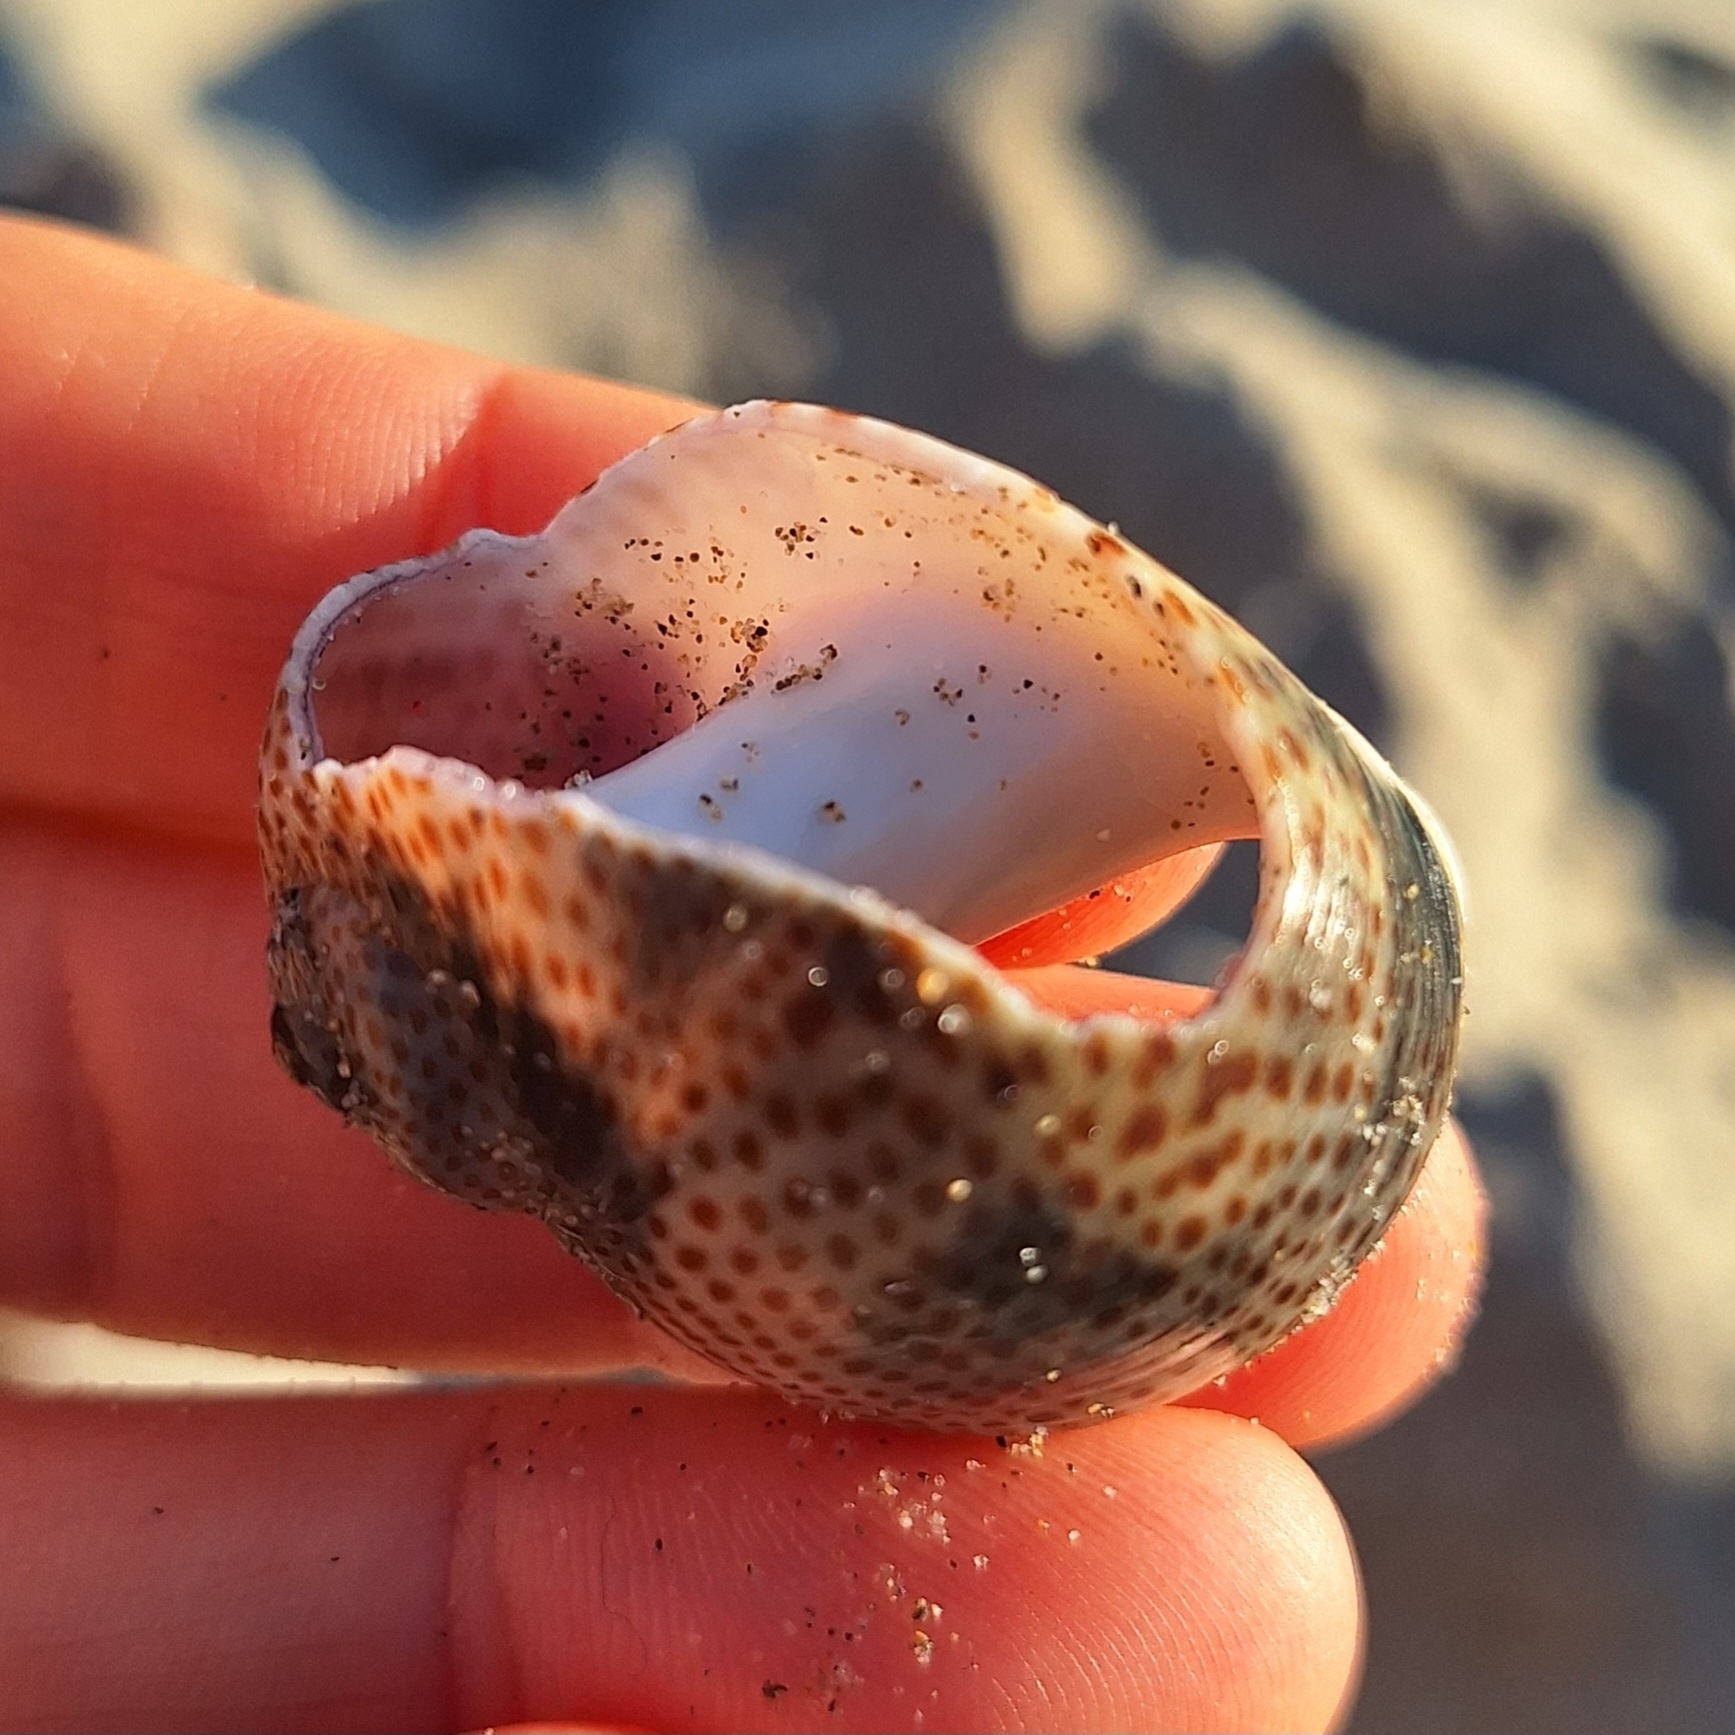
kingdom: Animalia
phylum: Mollusca
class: Gastropoda
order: Littorinimorpha
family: Naticidae
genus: Naticarius
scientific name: Naticarius stercusmuscarum
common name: Fly-speck moonsnail
